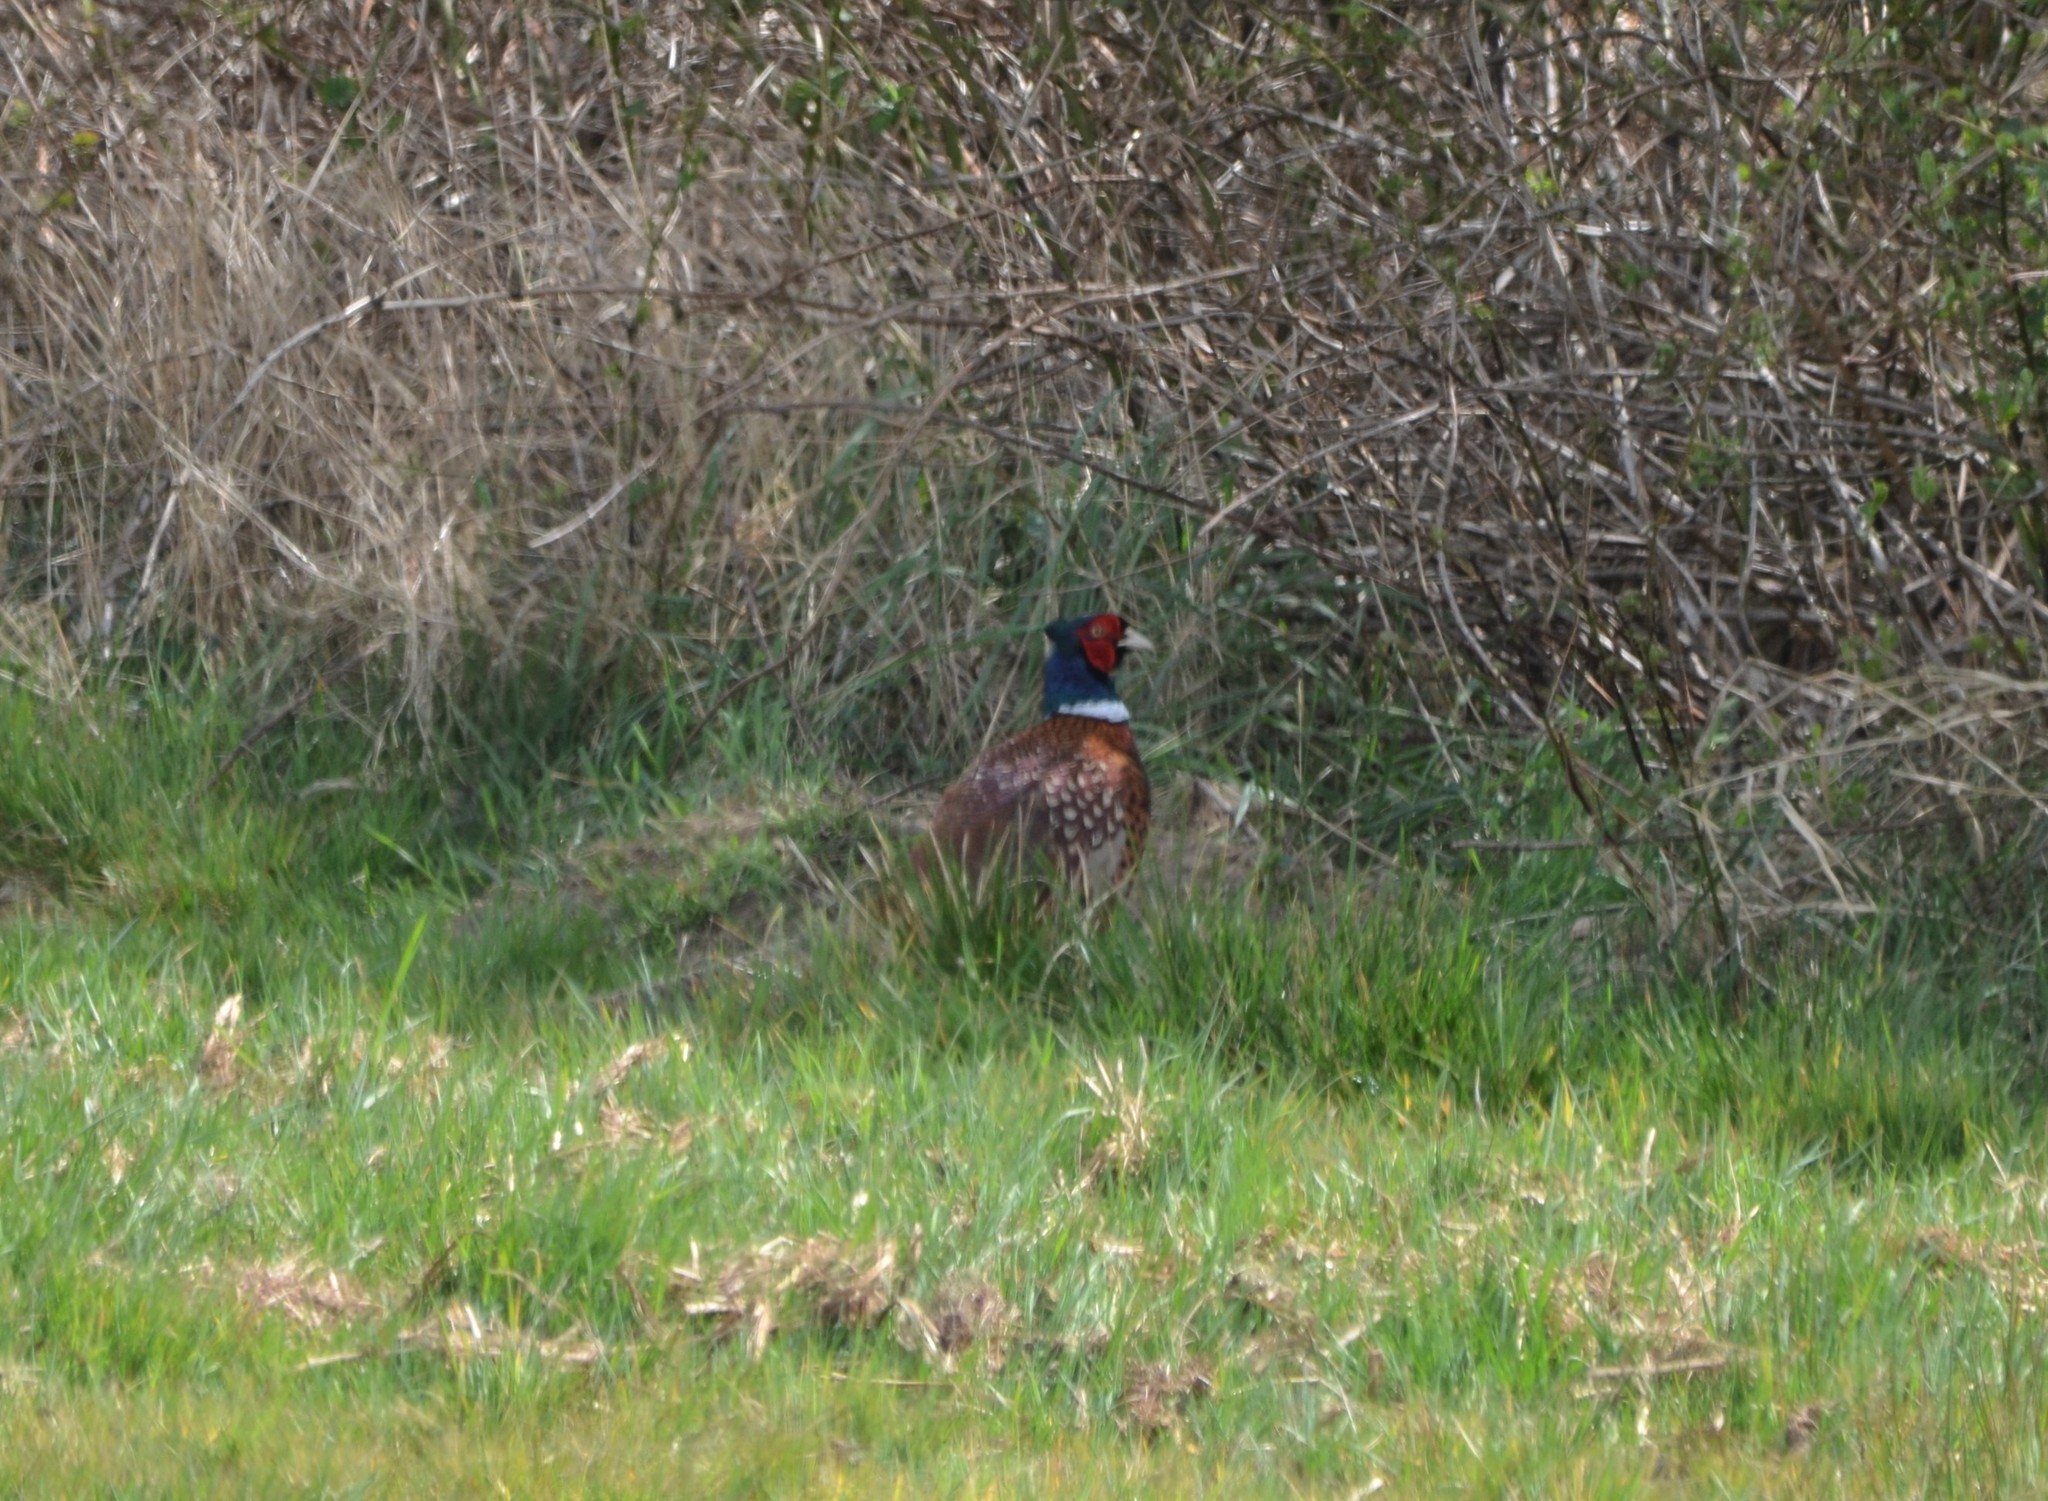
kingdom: Animalia
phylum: Chordata
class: Aves
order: Galliformes
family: Phasianidae
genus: Phasianus
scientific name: Phasianus colchicus
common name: Common pheasant
